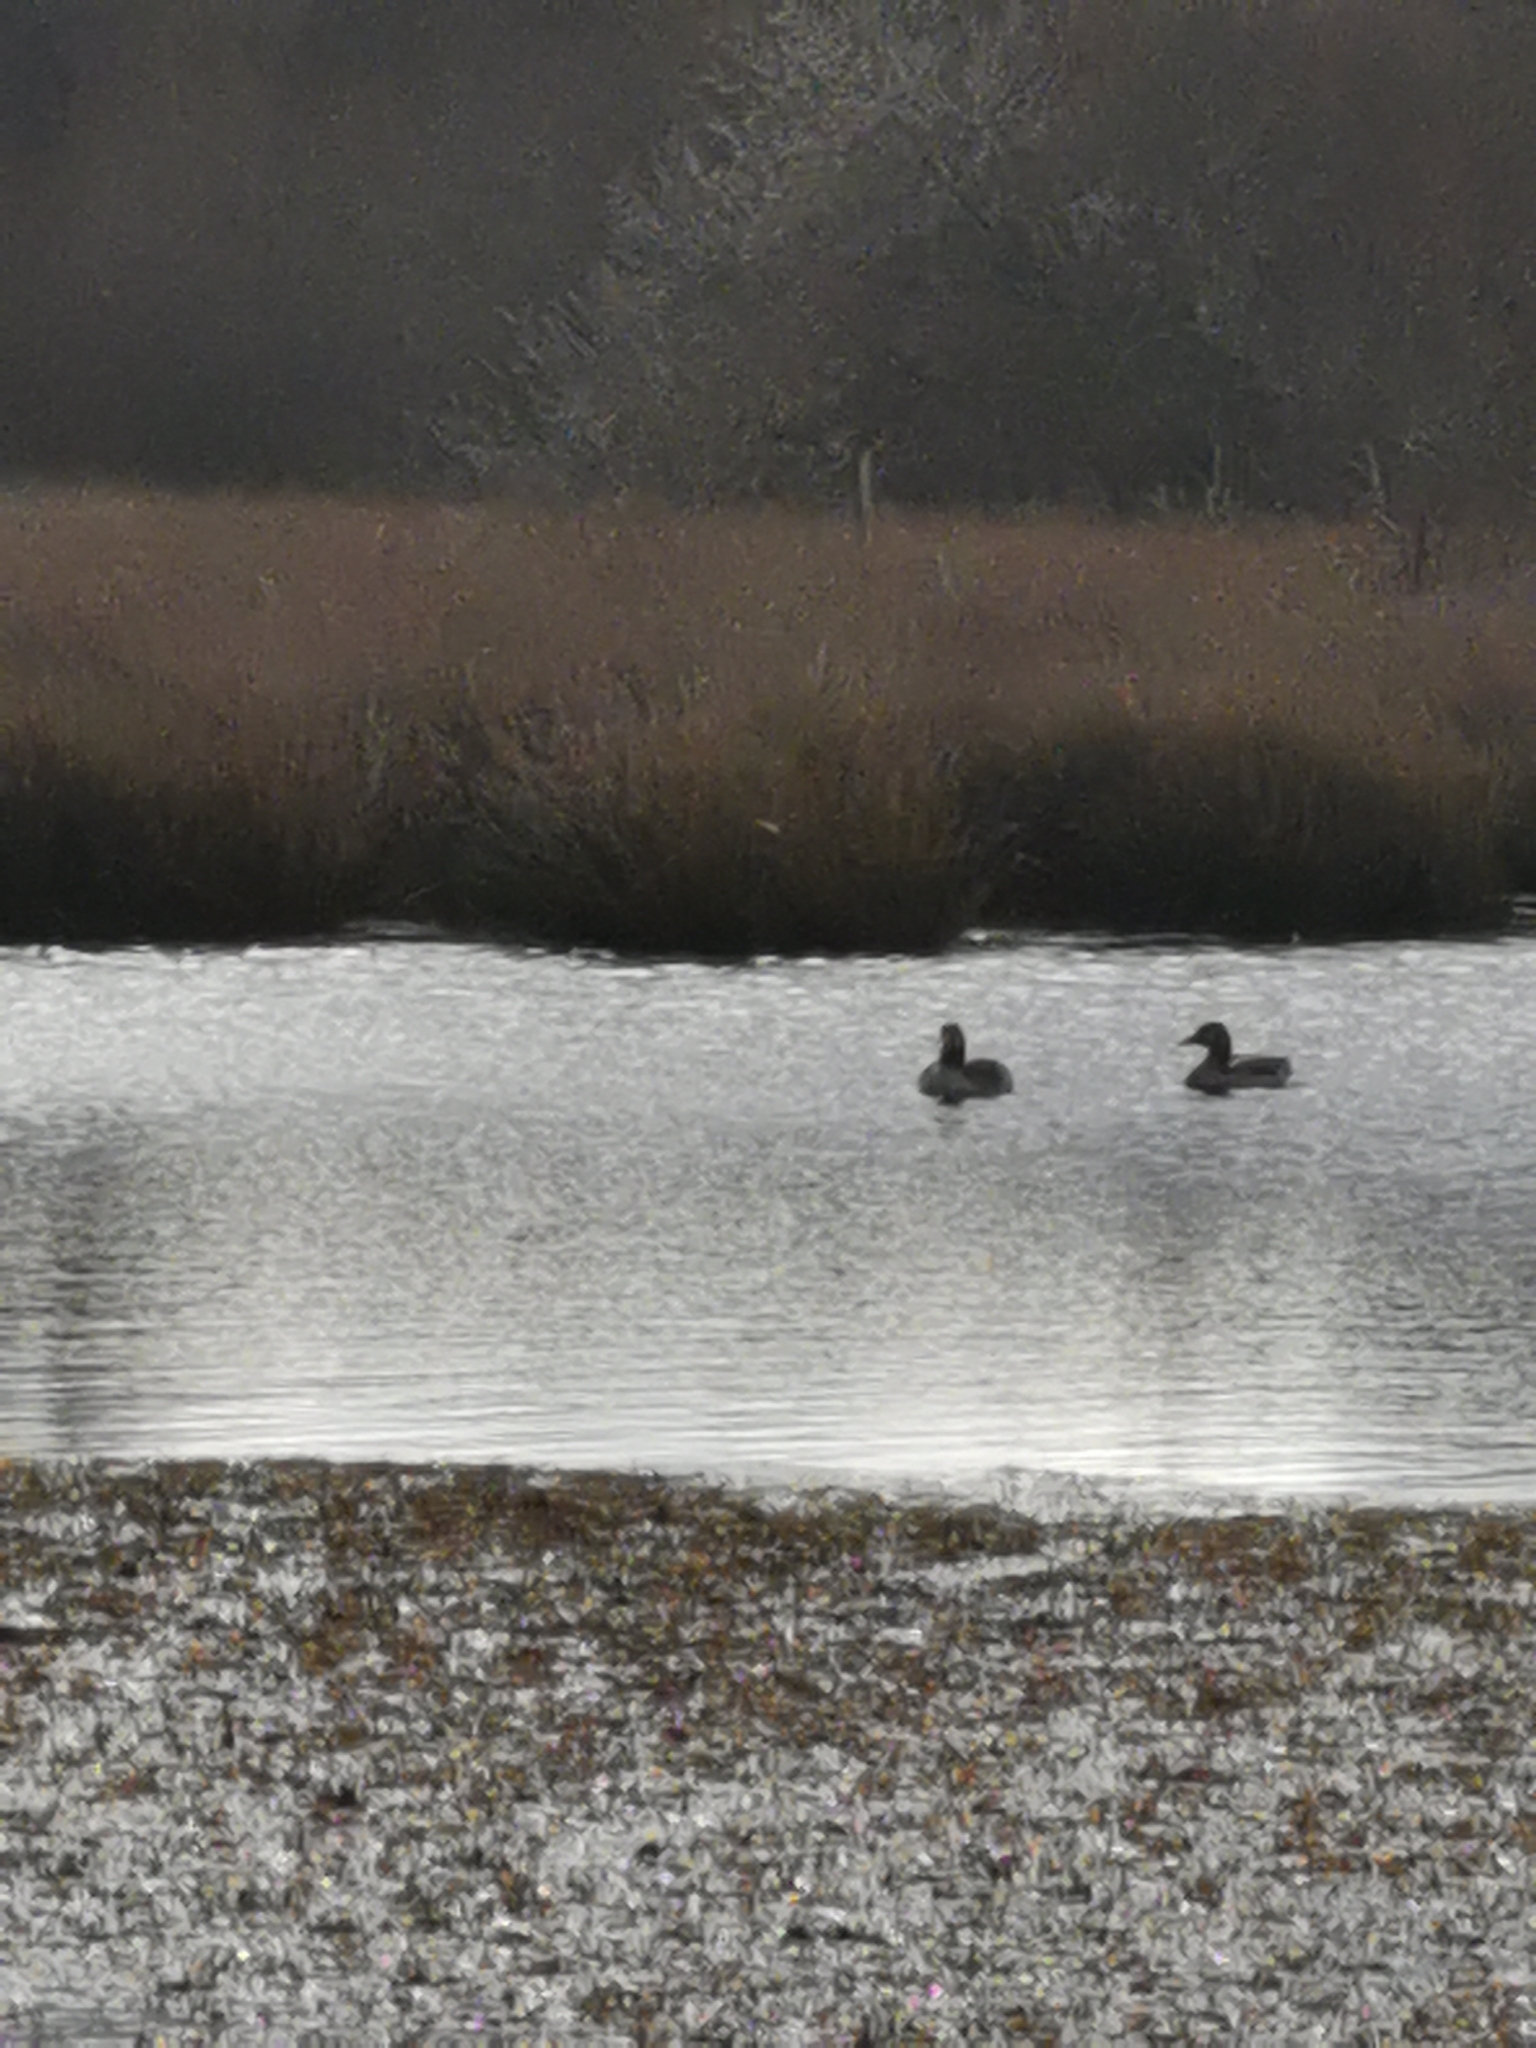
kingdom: Animalia
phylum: Chordata
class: Aves
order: Anseriformes
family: Anatidae
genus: Anser
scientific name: Anser anser
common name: Greylag goose
